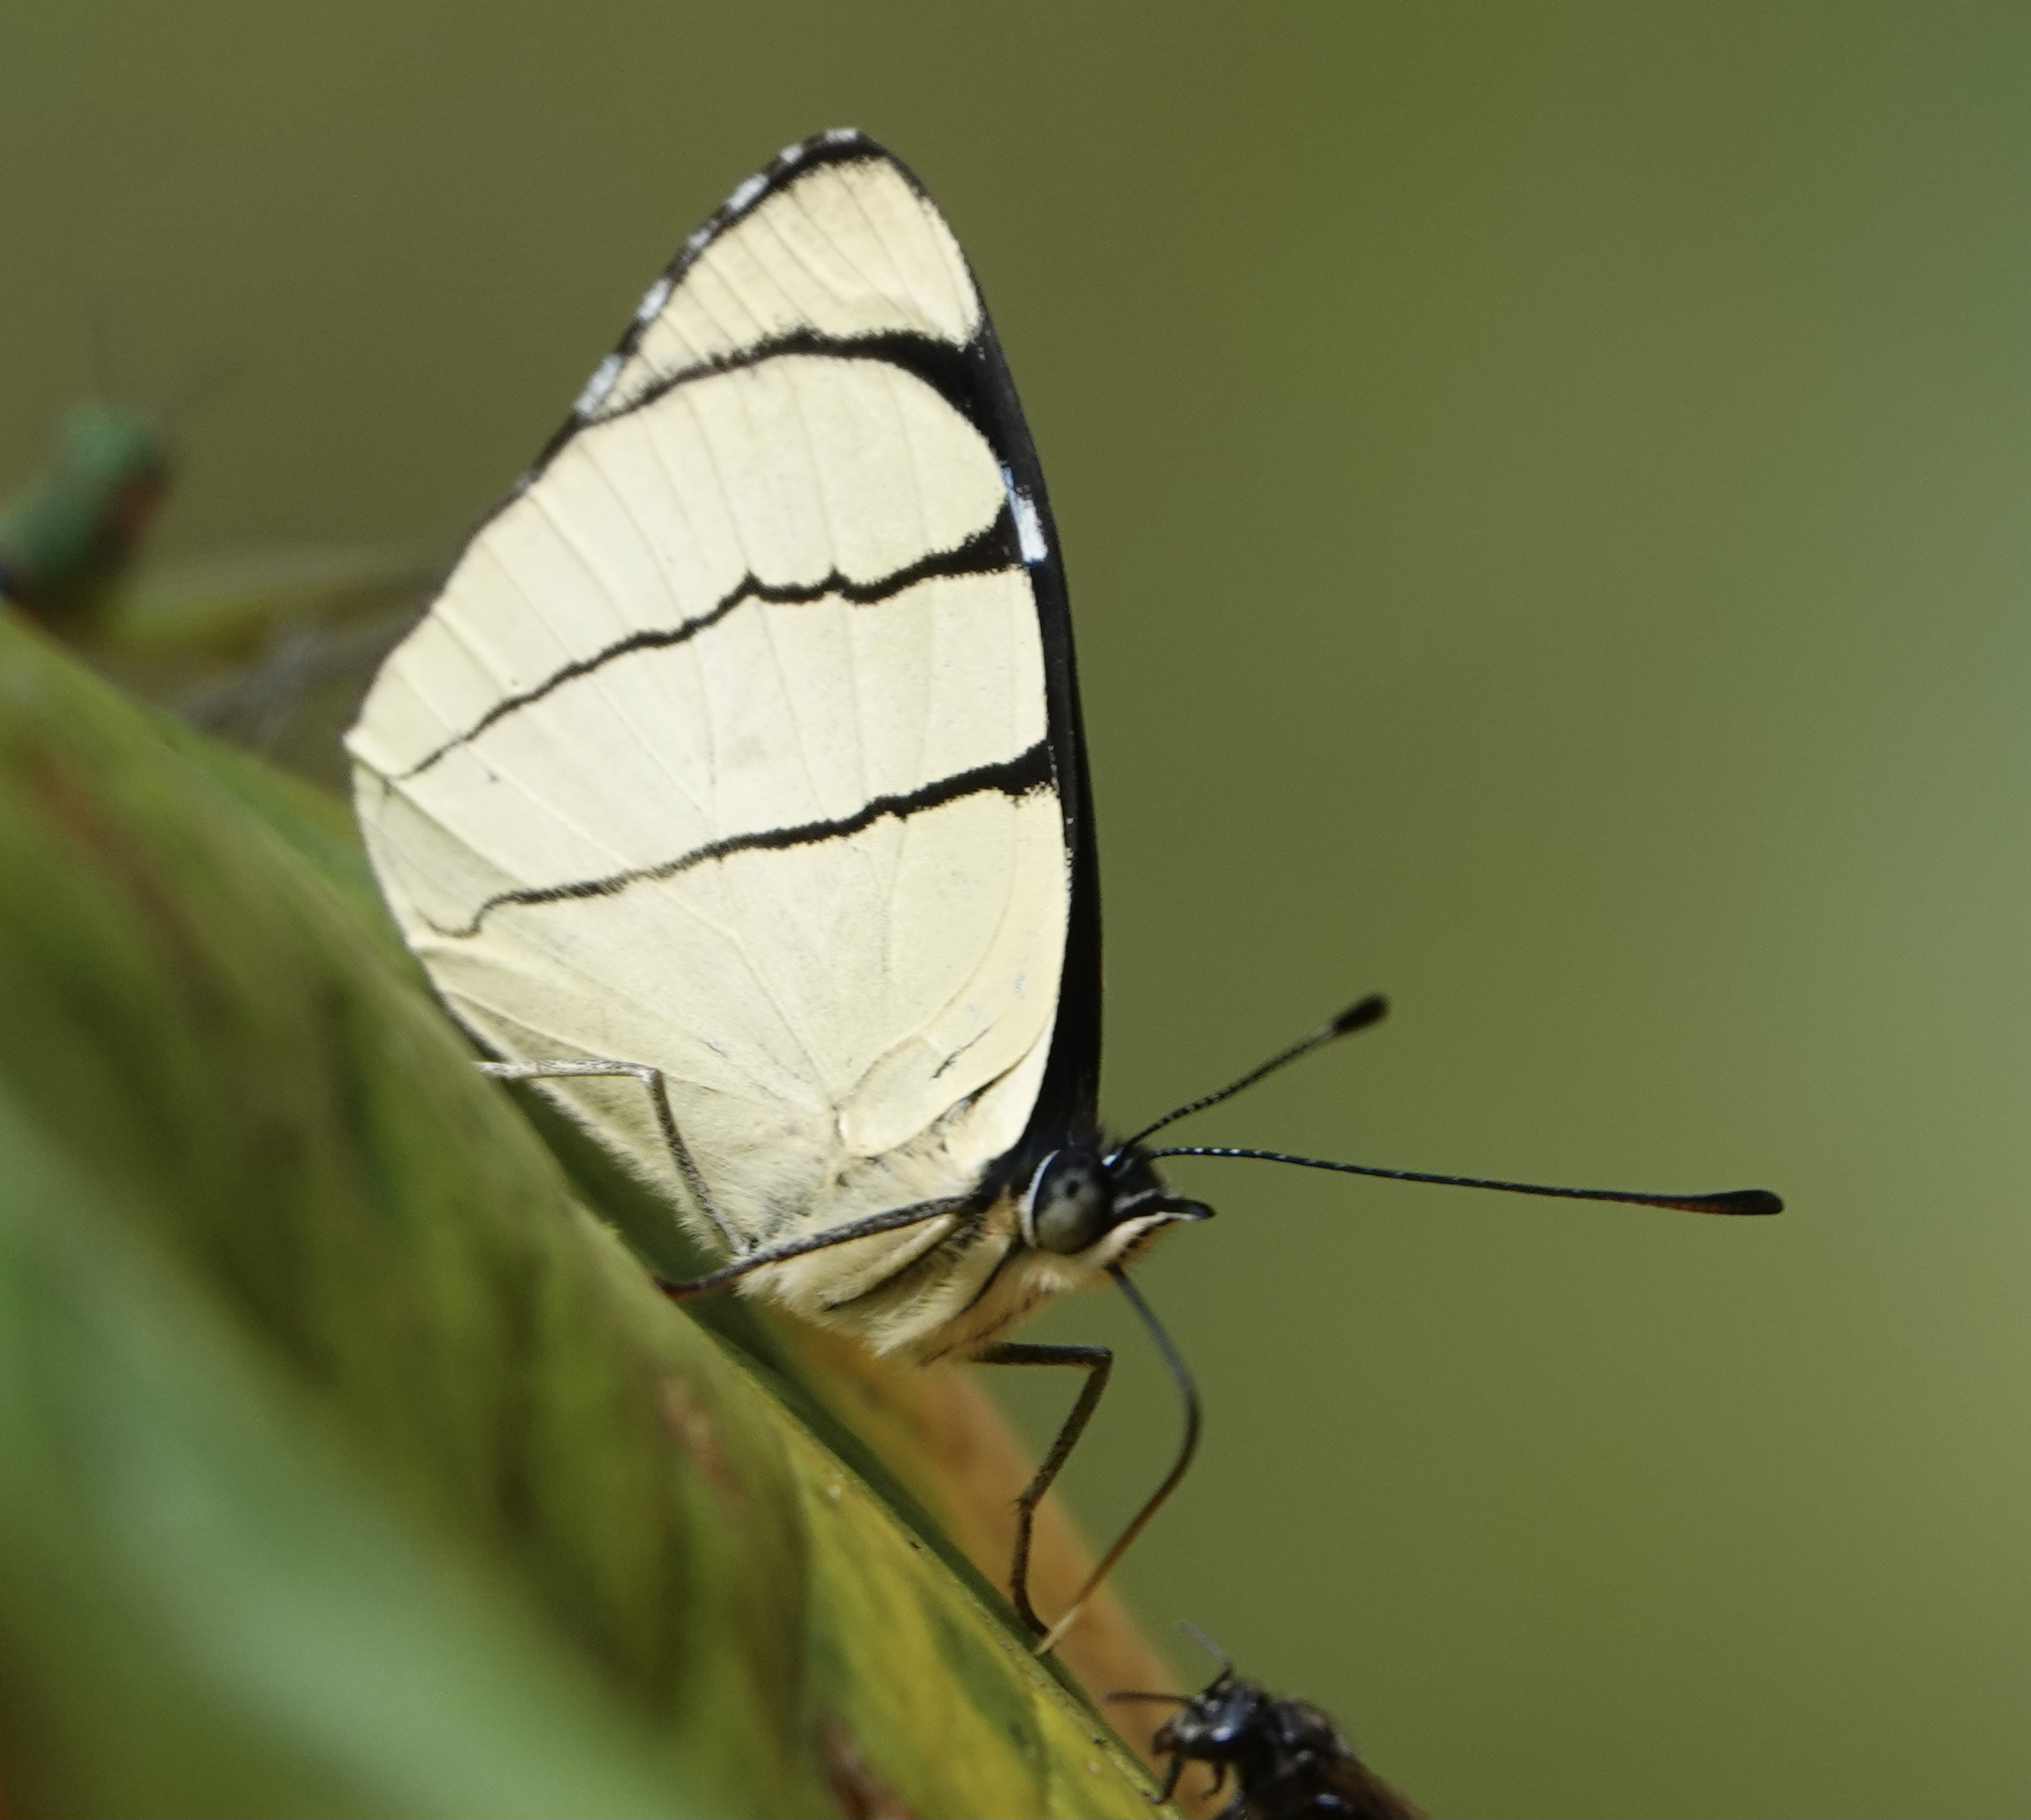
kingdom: Animalia
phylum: Arthropoda
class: Insecta
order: Lepidoptera
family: Nymphalidae
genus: Perisama
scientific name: Perisama oppelii
